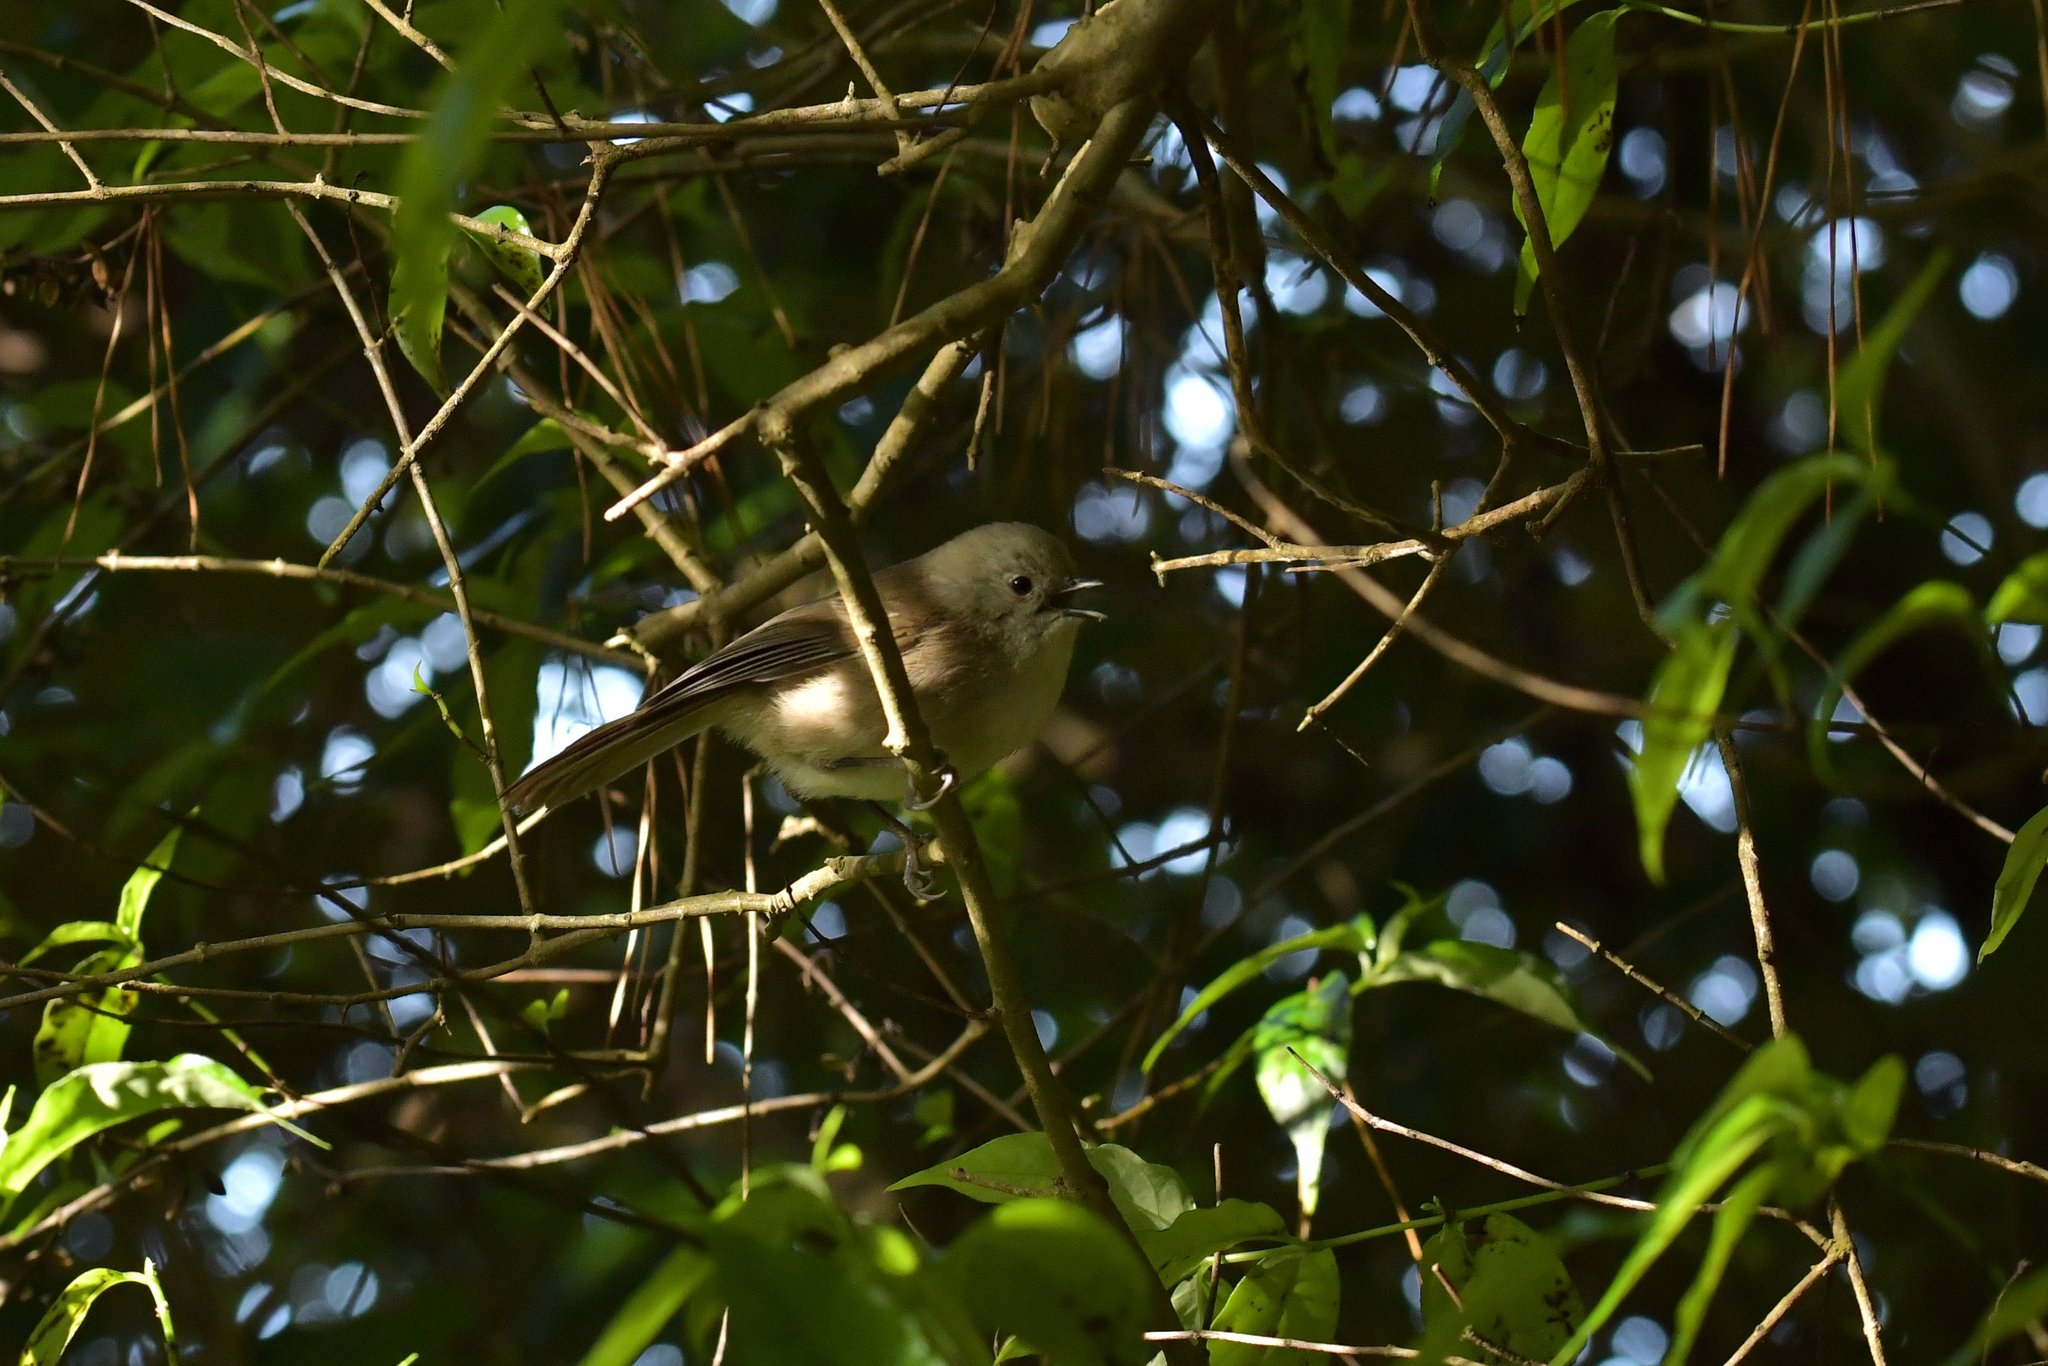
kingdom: Animalia
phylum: Chordata
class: Aves
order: Passeriformes
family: Acanthizidae
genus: Mohoua
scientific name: Mohoua albicilla
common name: Whitehead
